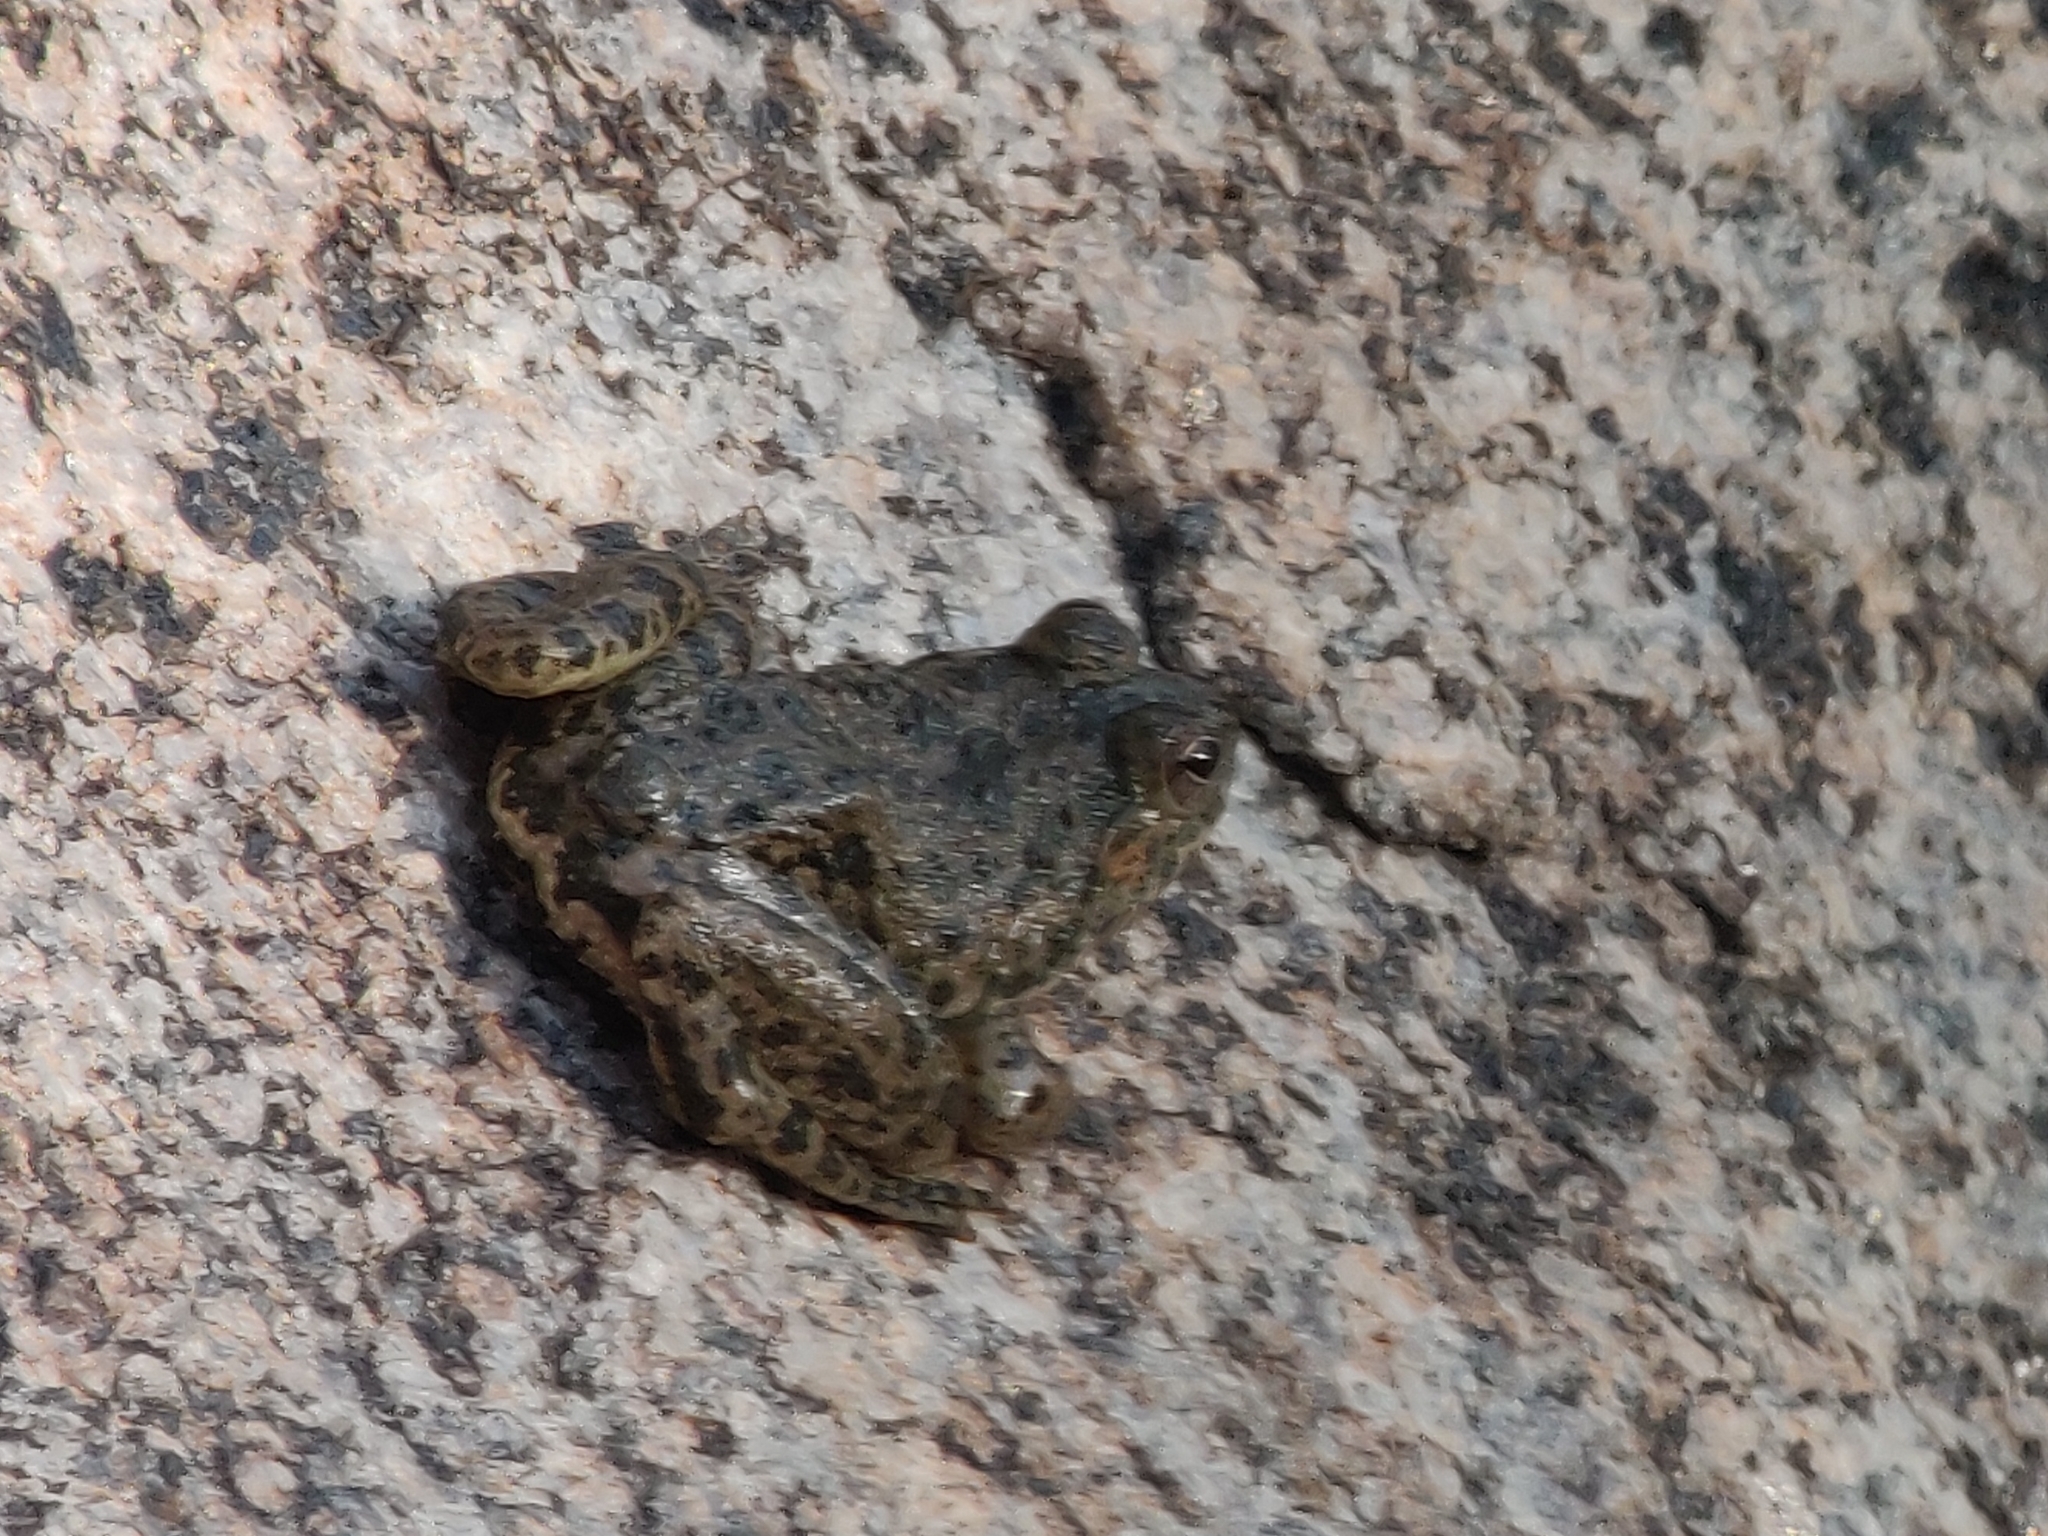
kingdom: Animalia
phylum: Chordata
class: Amphibia
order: Anura
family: Dicroglossidae
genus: Euphlyctis
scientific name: Euphlyctis cyanophlyctis
